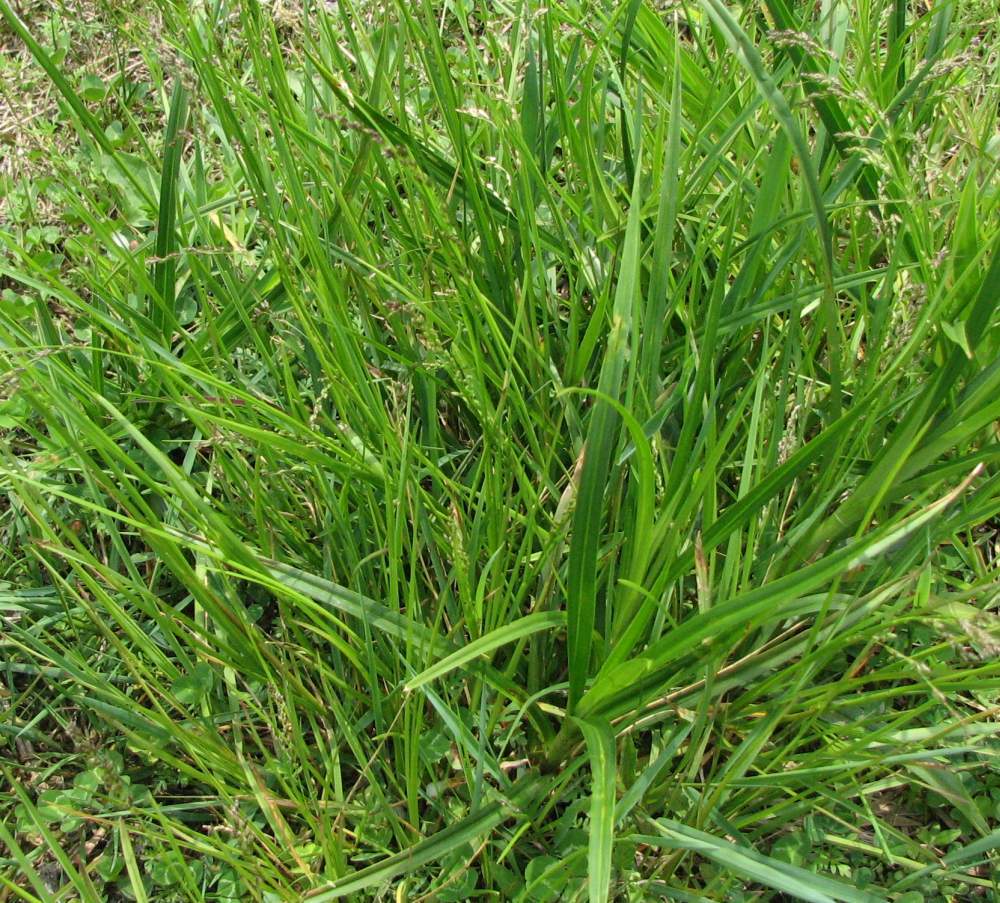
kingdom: Plantae
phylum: Tracheophyta
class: Liliopsida
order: Poales
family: Poaceae
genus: Glyceria
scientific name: Glyceria canadensis
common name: Canada mannagrass
